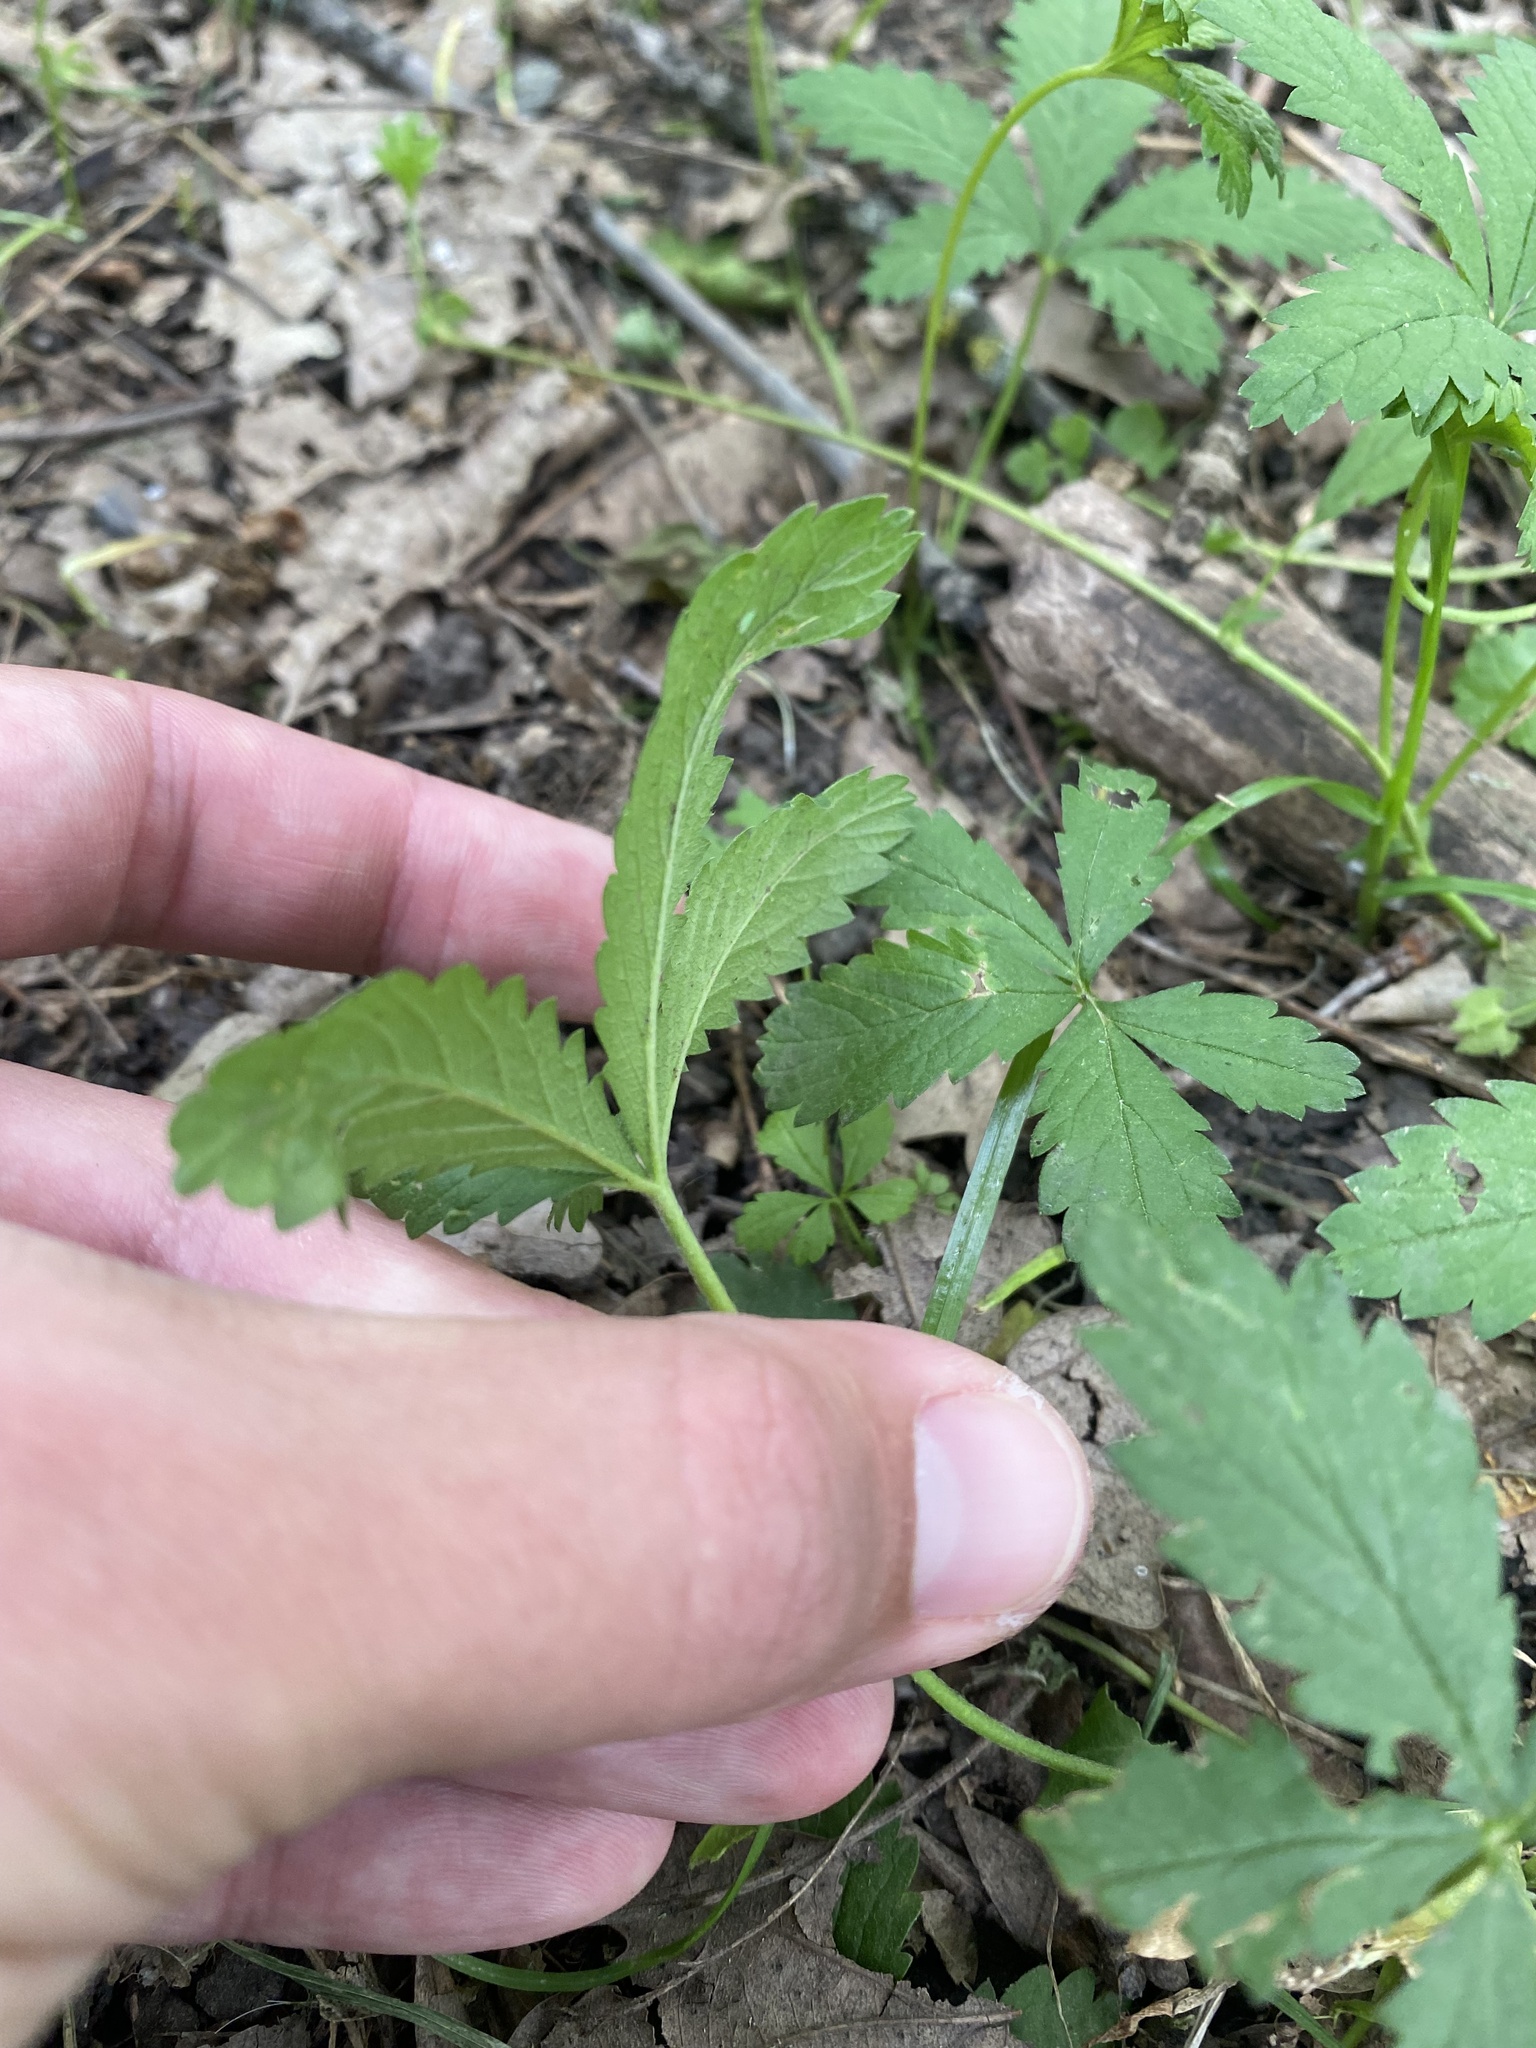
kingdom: Plantae
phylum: Tracheophyta
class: Magnoliopsida
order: Rosales
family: Rosaceae
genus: Potentilla
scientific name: Potentilla reptans
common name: Creeping cinquefoil
